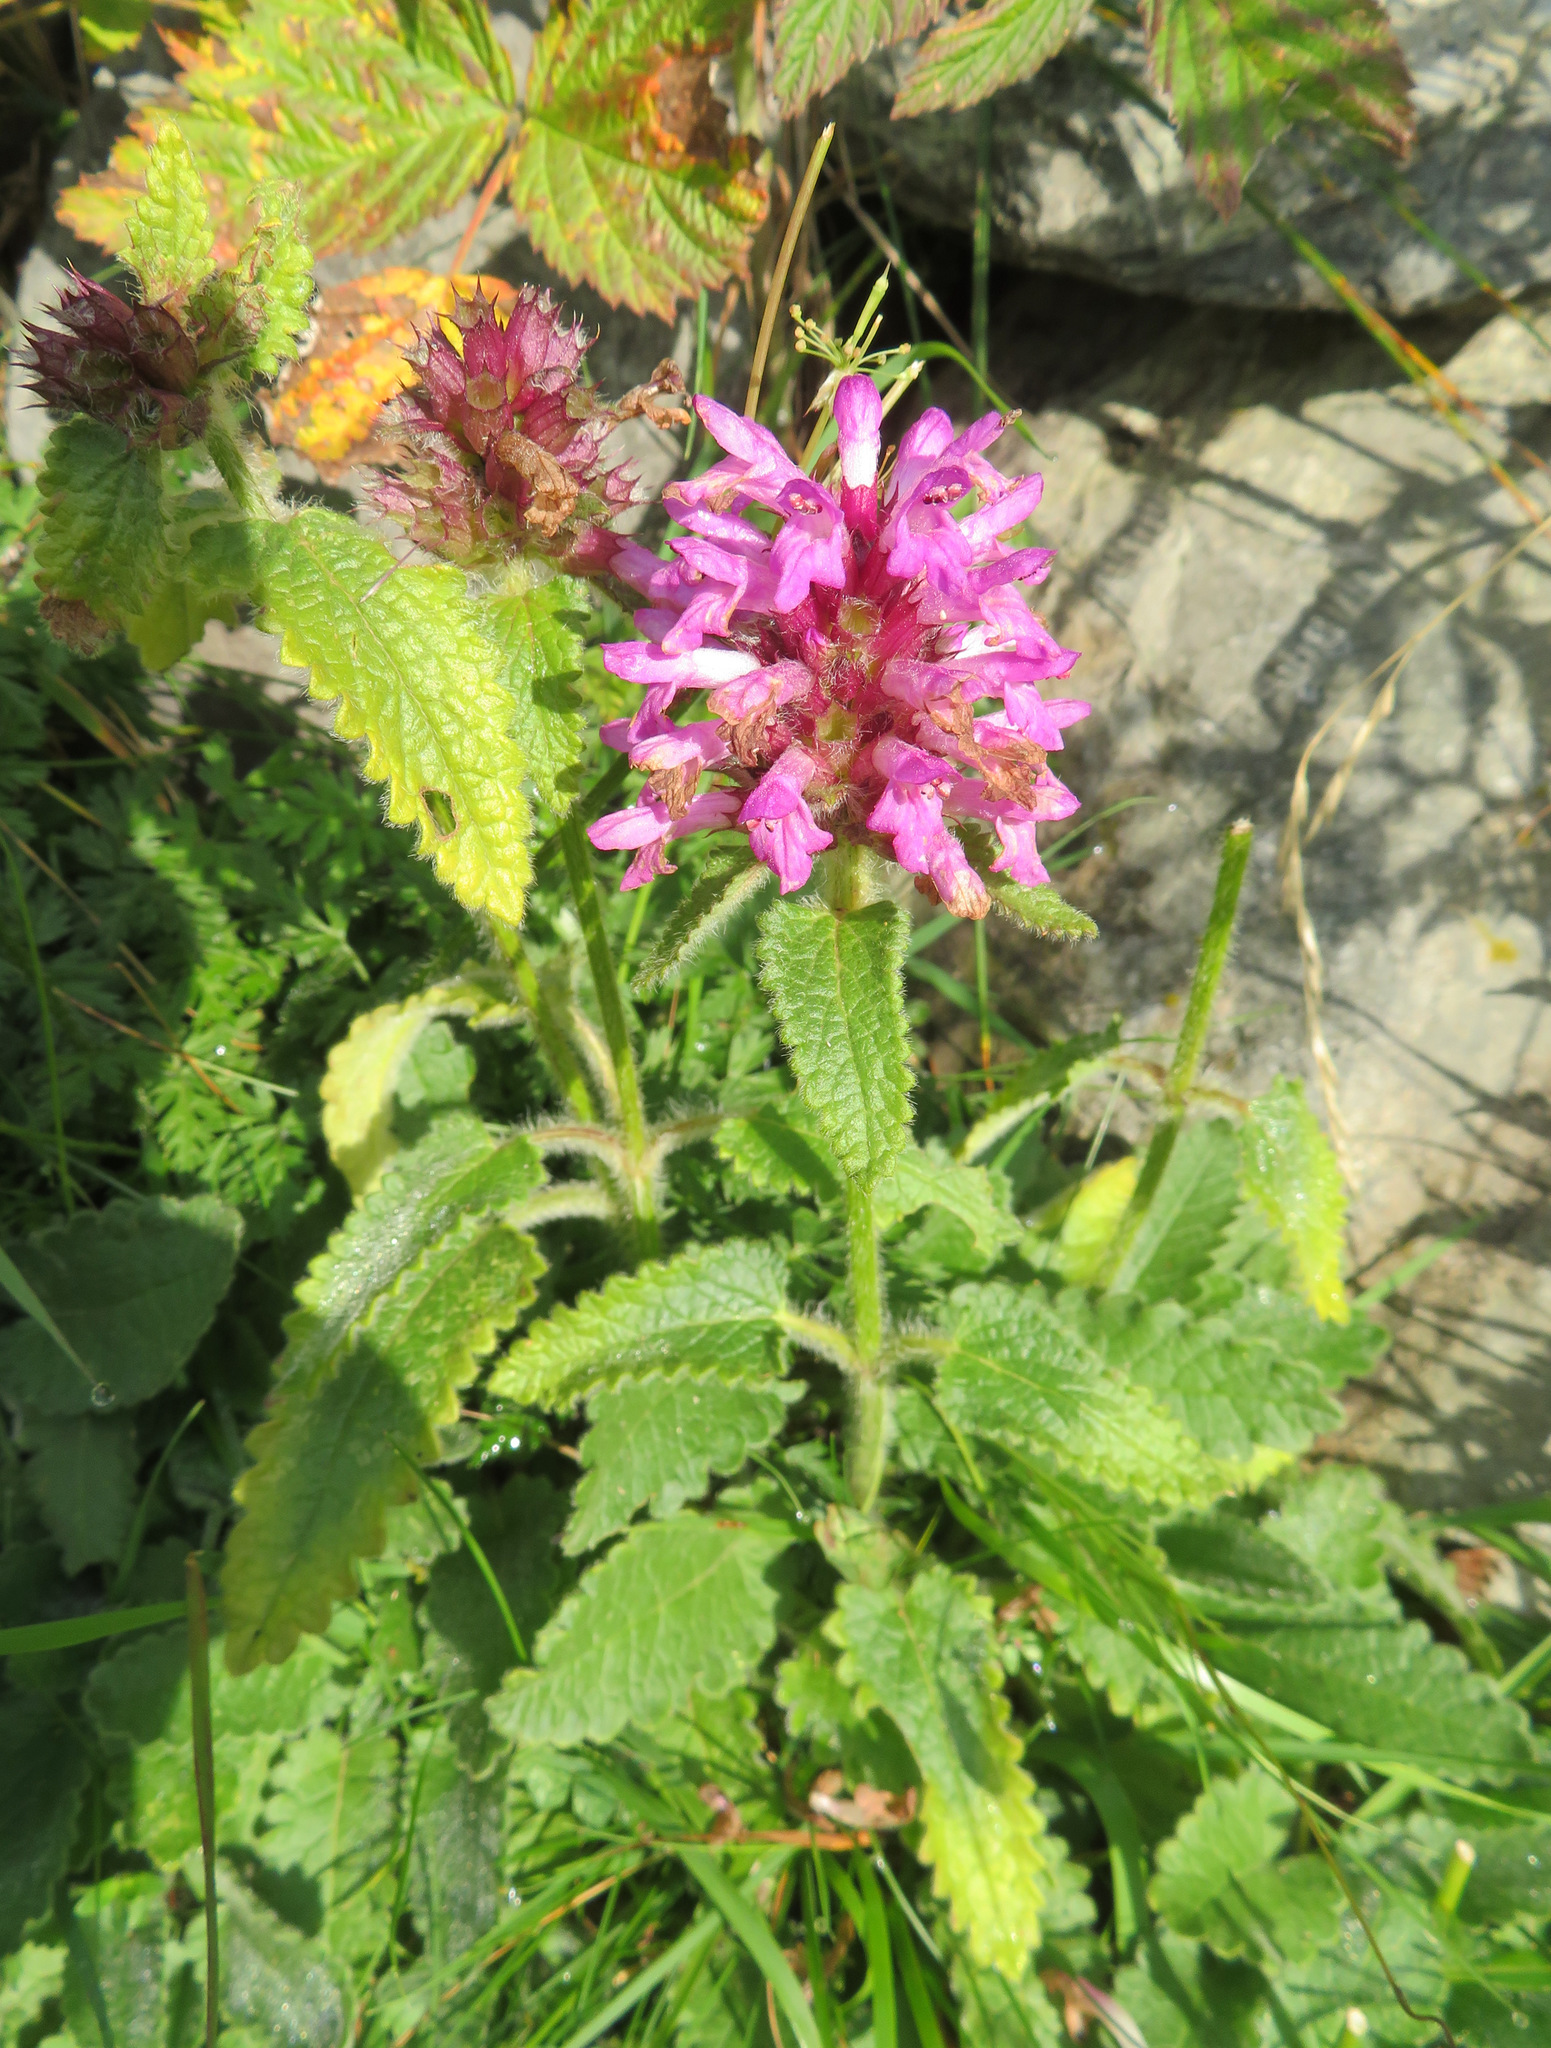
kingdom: Plantae
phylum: Tracheophyta
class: Magnoliopsida
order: Lamiales
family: Lamiaceae
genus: Betonica
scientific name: Betonica hirsuta
